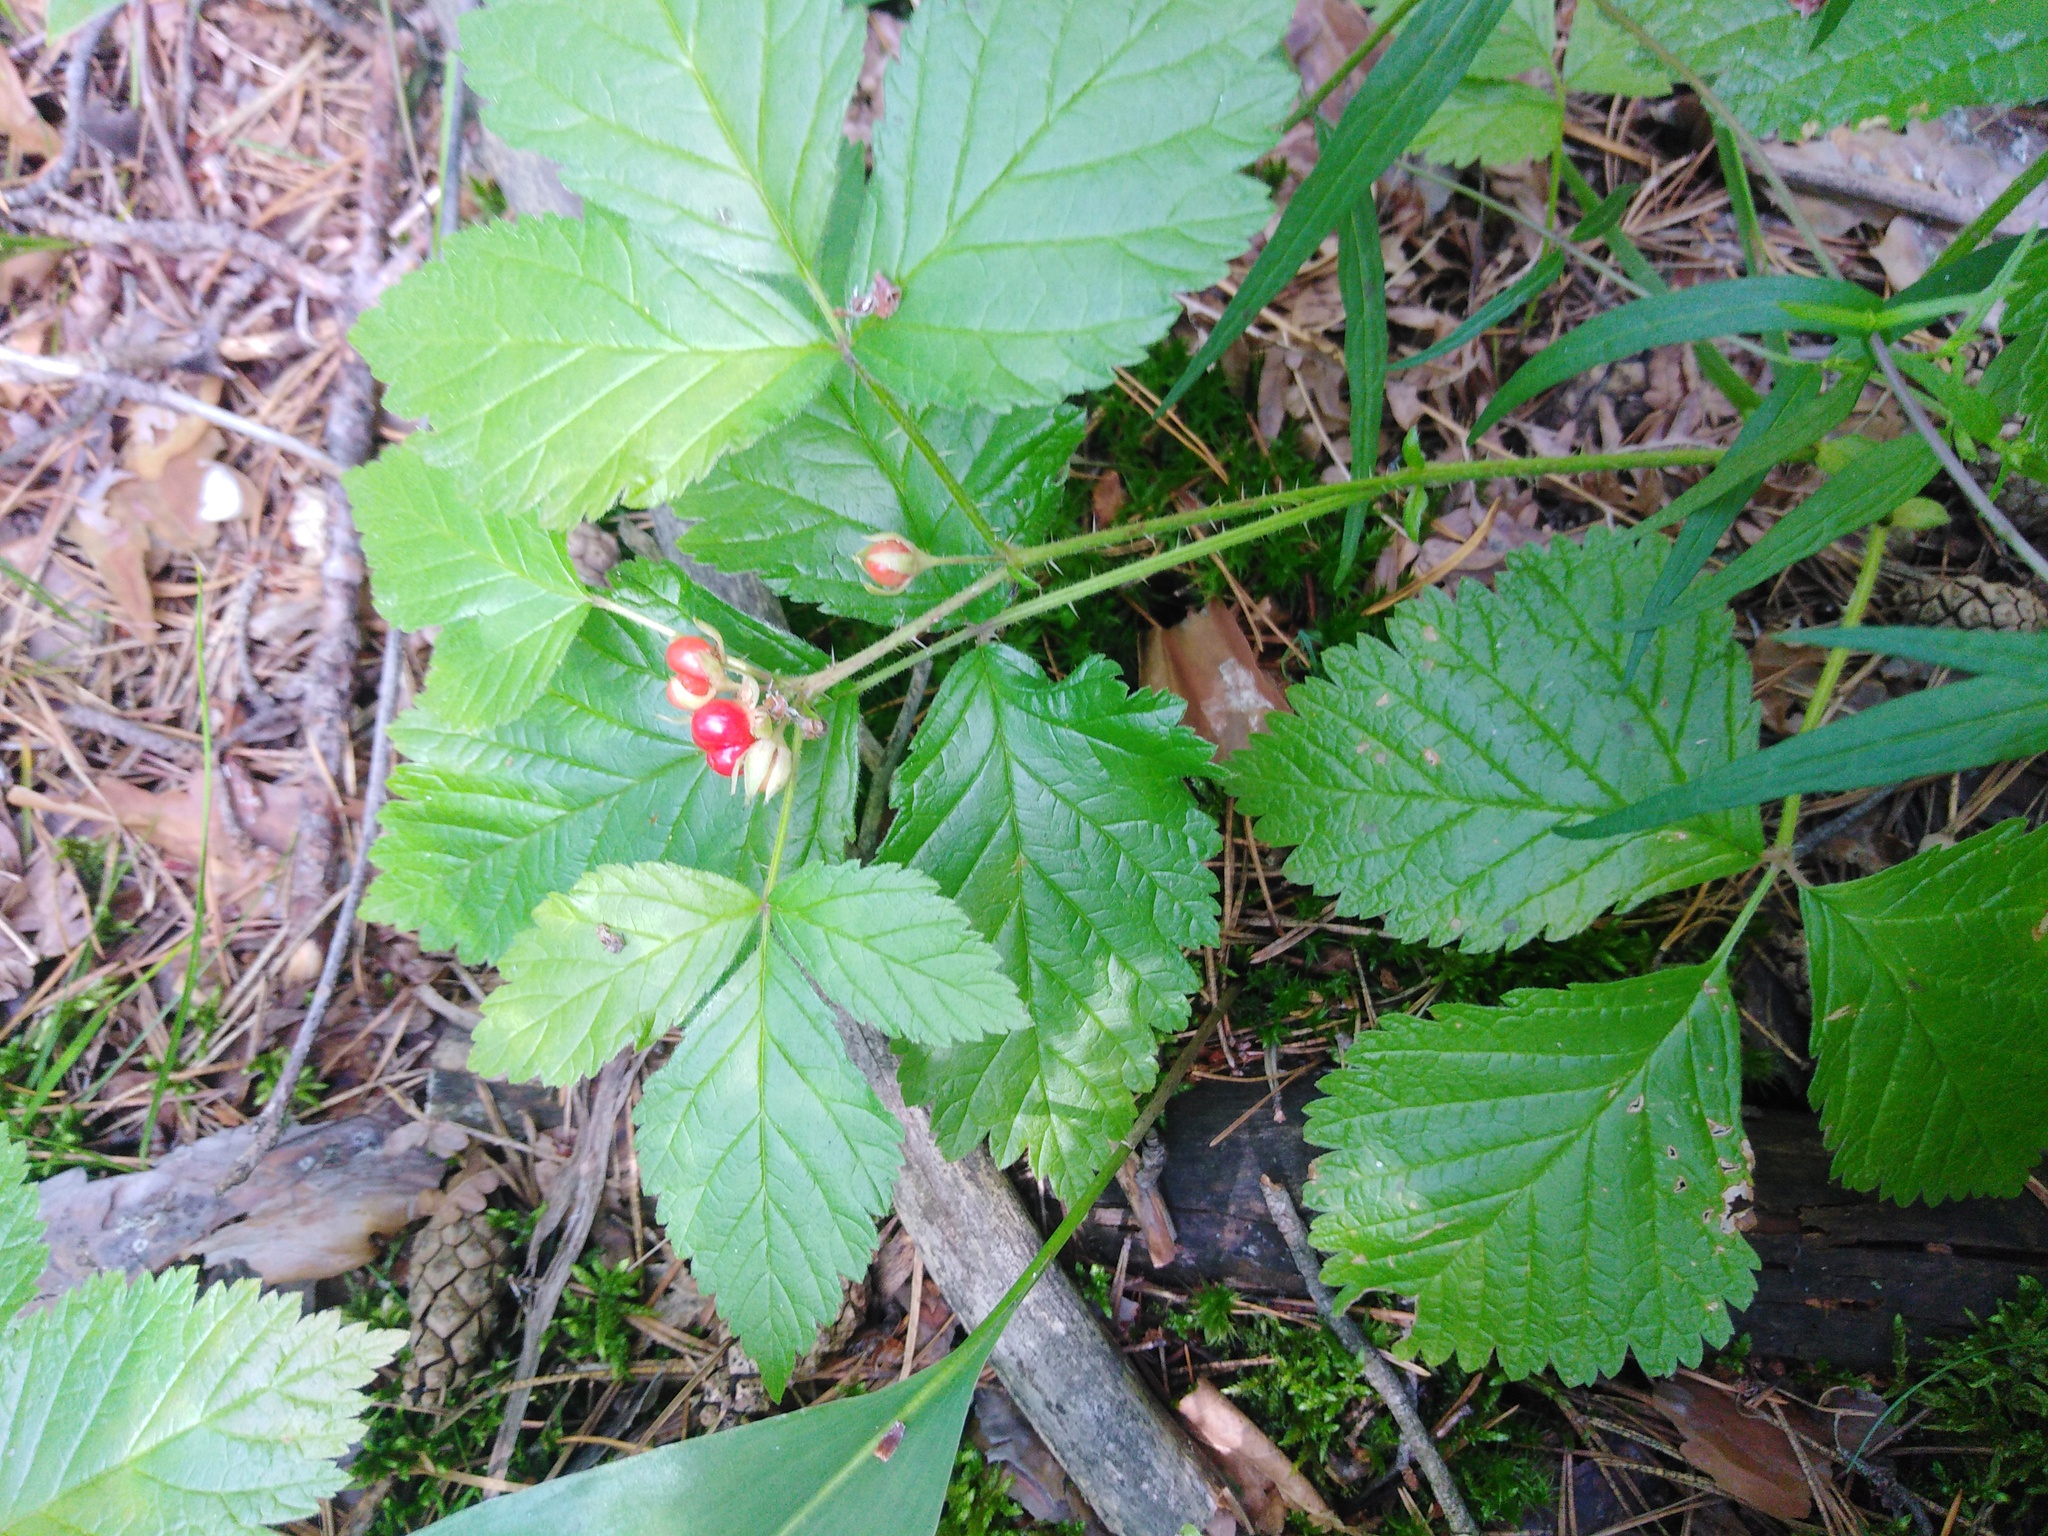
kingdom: Plantae
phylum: Tracheophyta
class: Magnoliopsida
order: Rosales
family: Rosaceae
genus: Rubus
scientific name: Rubus saxatilis
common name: Stone bramble
